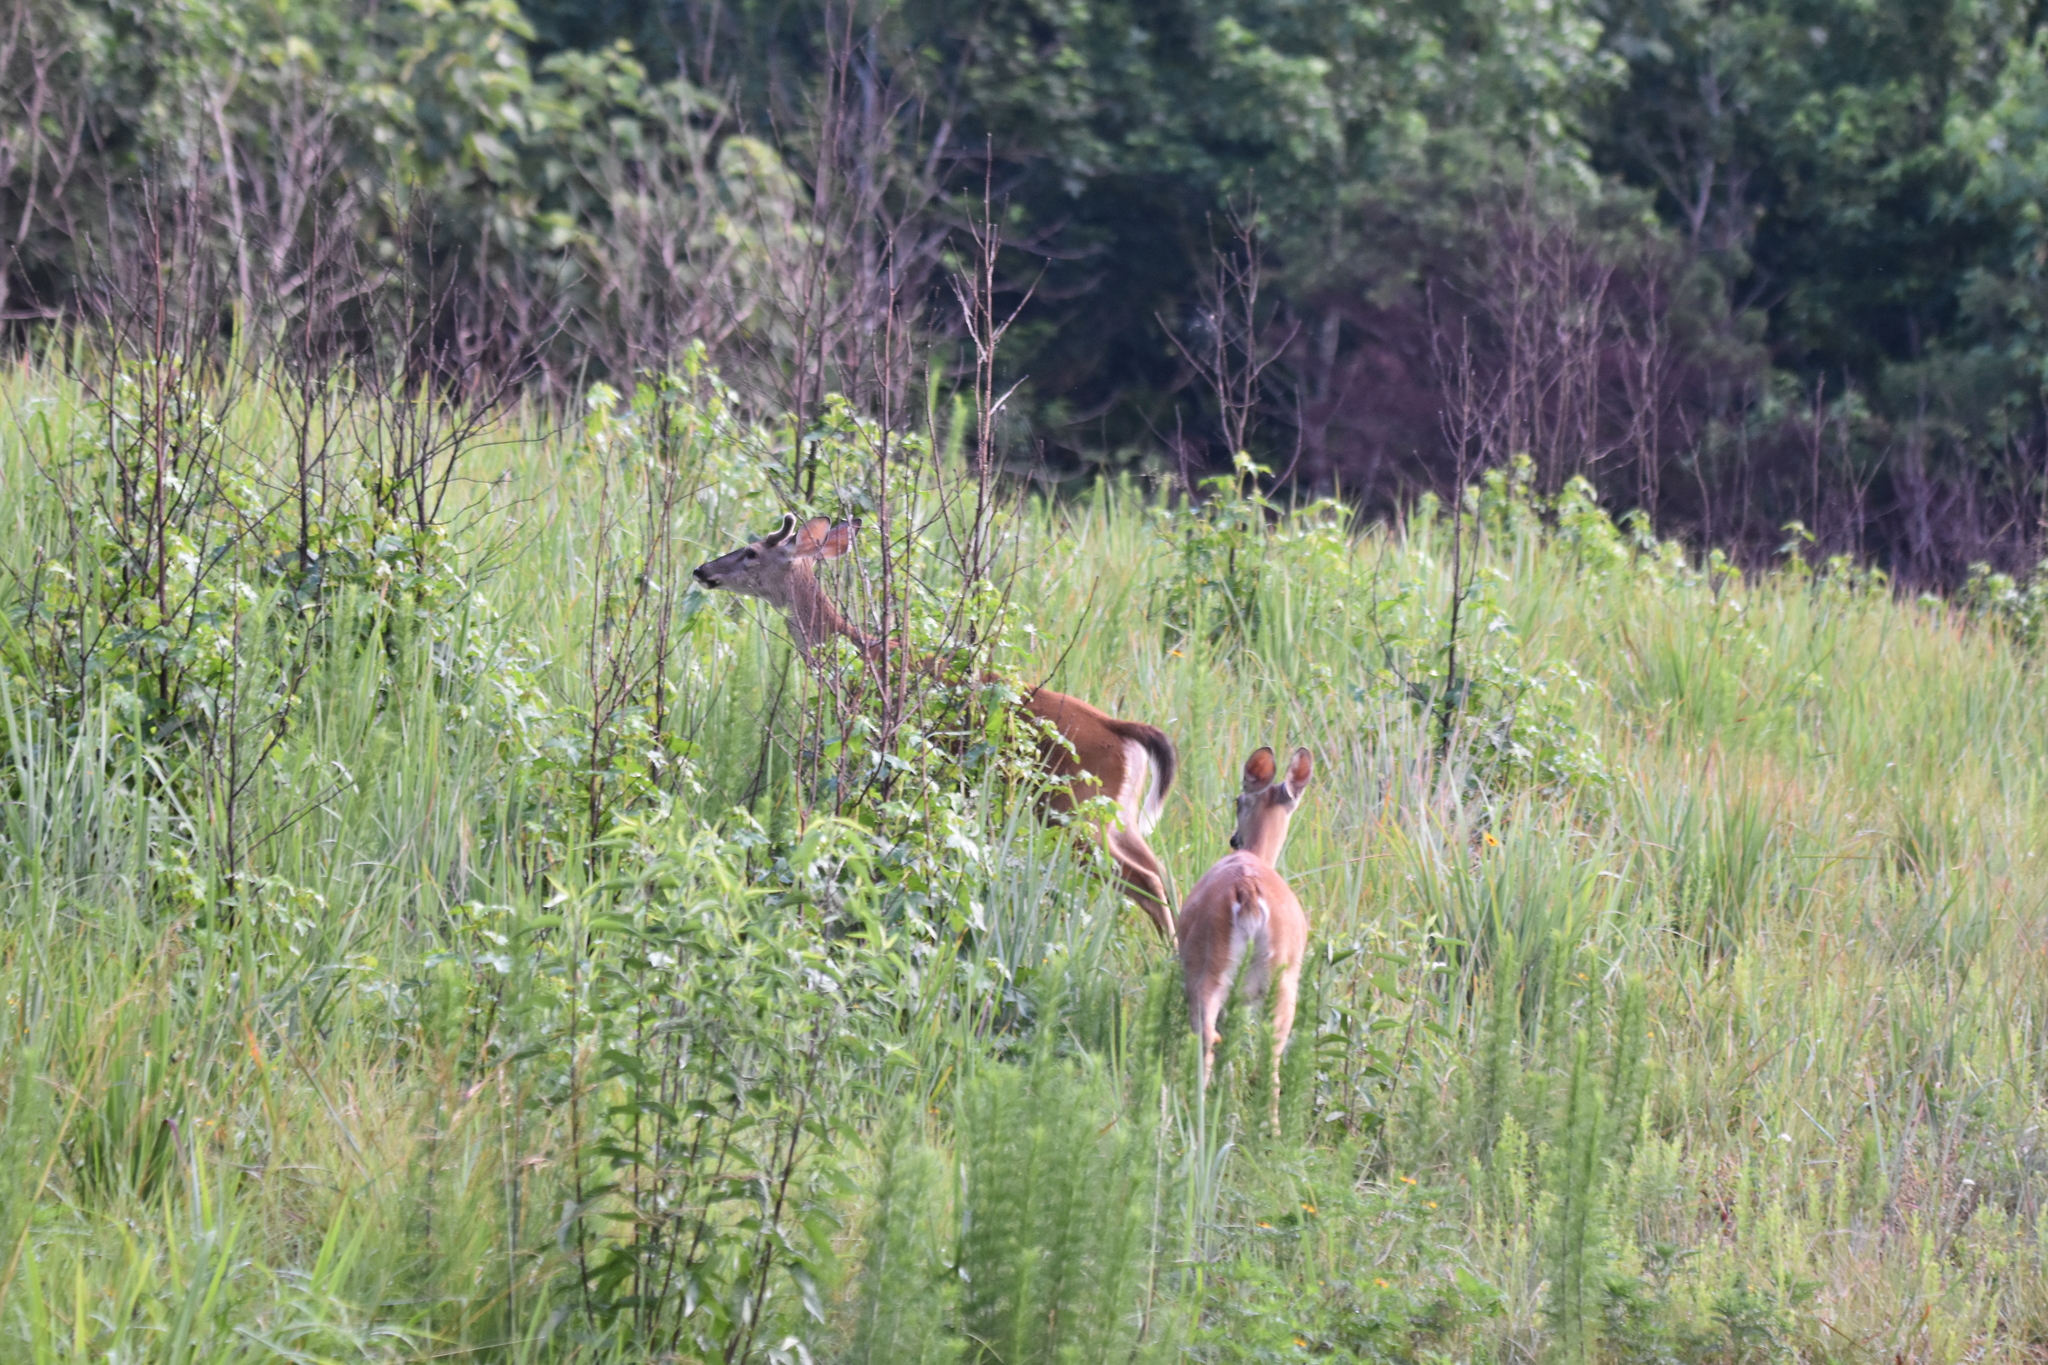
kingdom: Animalia
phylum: Chordata
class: Mammalia
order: Artiodactyla
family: Cervidae
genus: Odocoileus
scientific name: Odocoileus virginianus
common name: White-tailed deer
